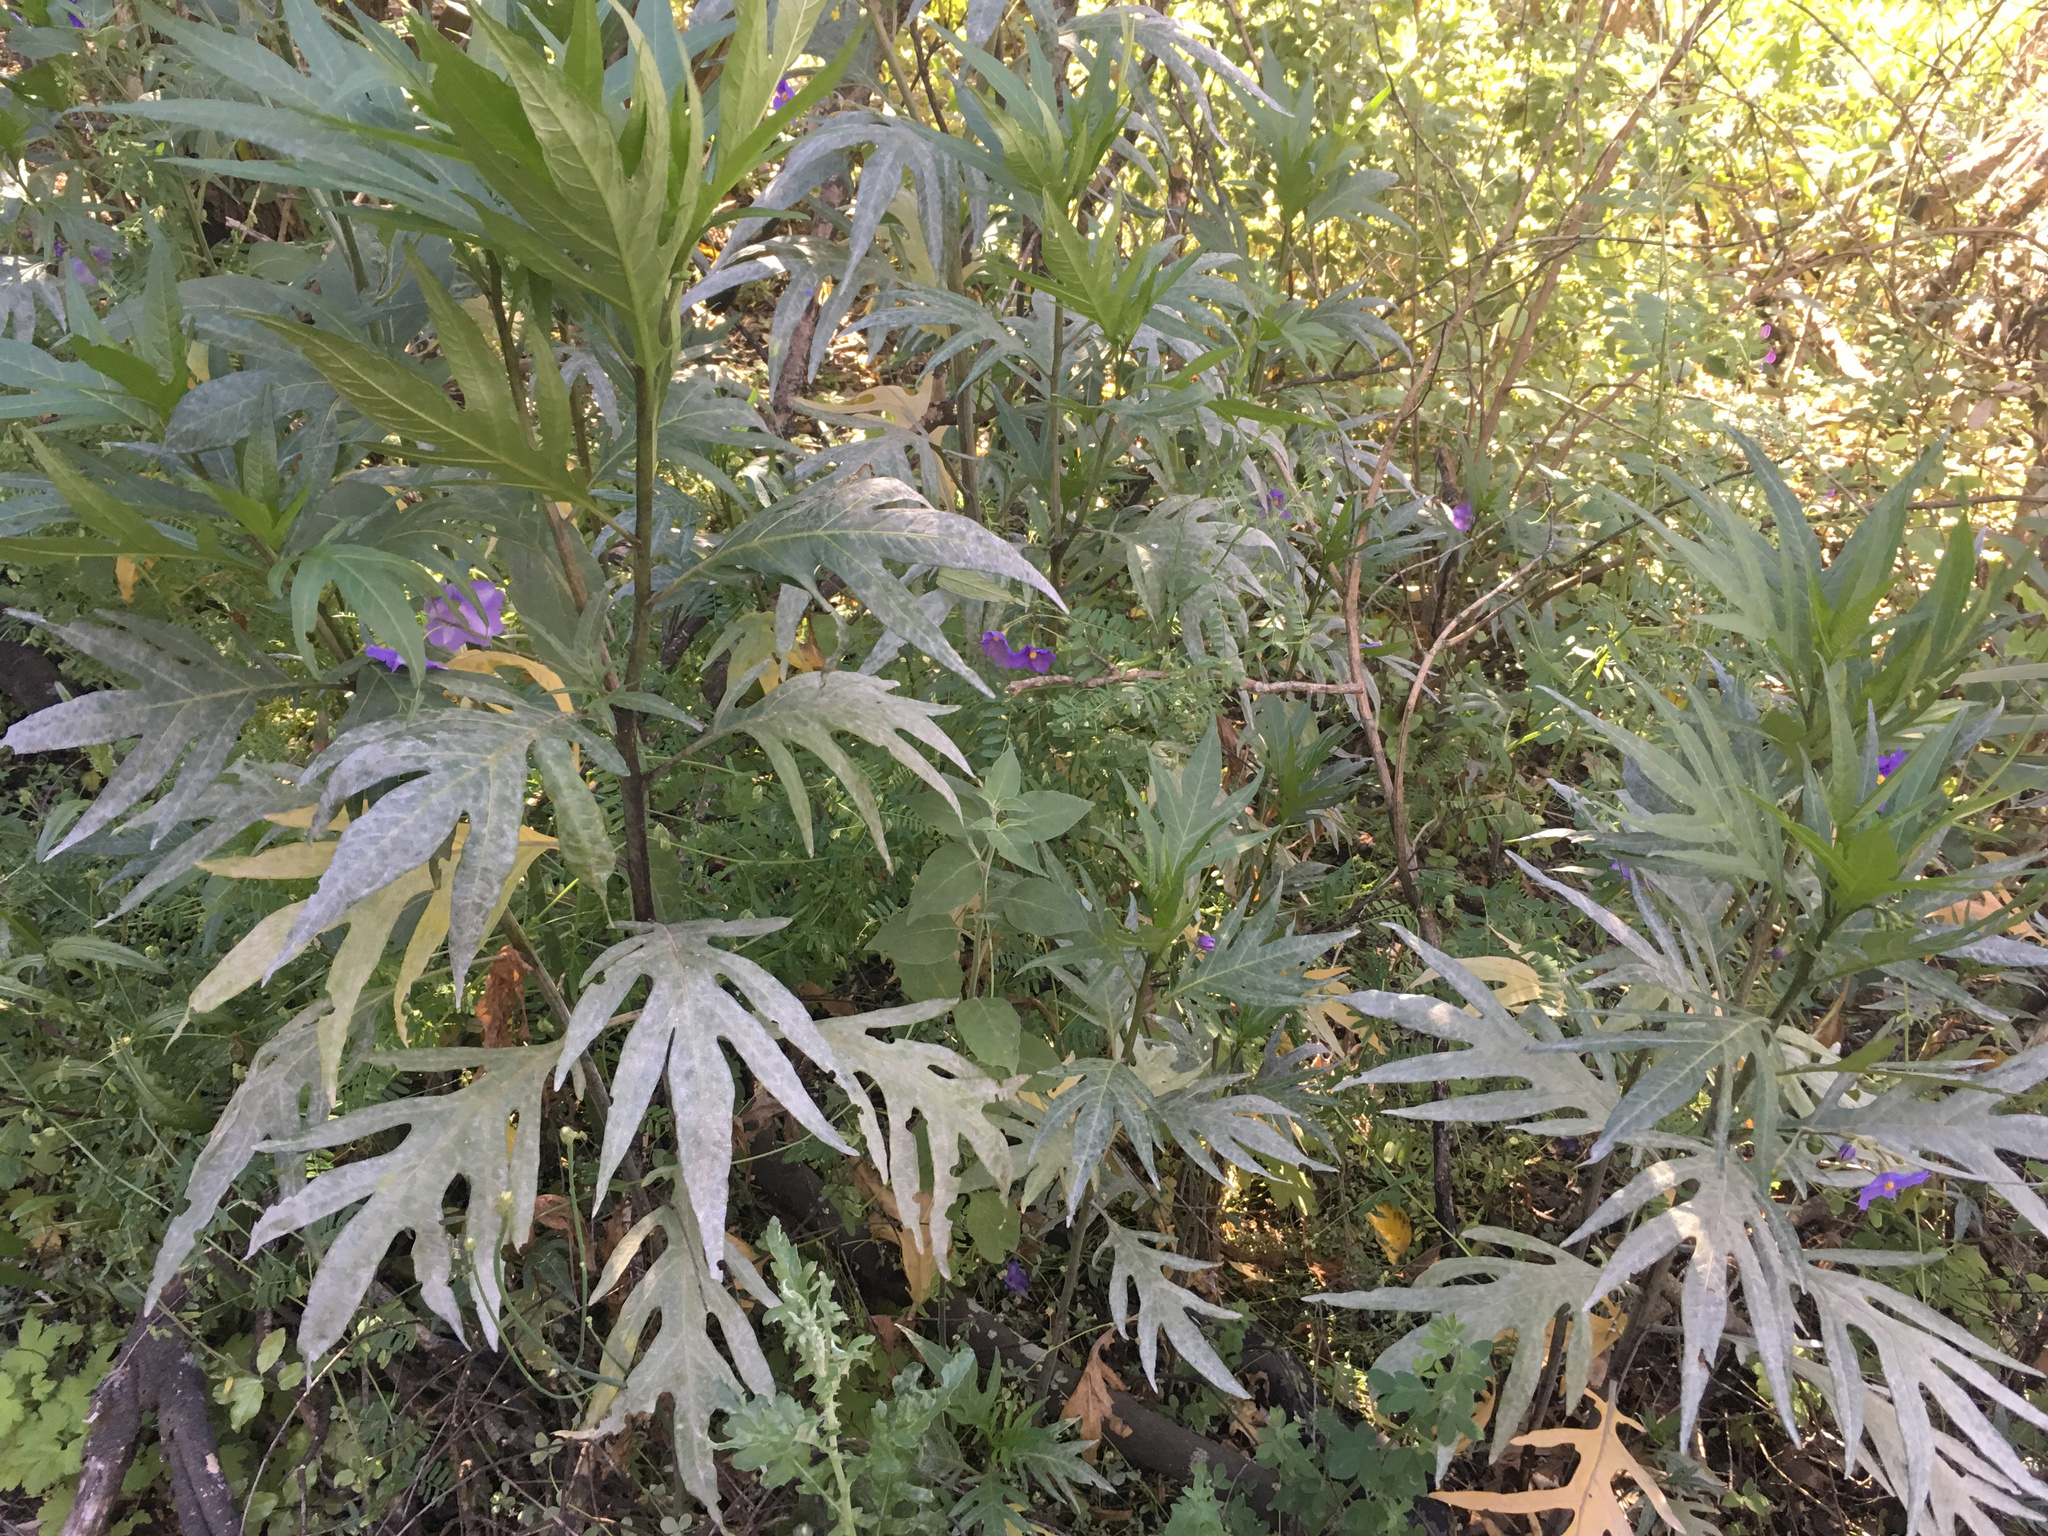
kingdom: Fungi
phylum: Ascomycota
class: Leotiomycetes
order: Helotiales
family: Erysiphaceae
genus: Golovinomyces
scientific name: Golovinomyces longipes
